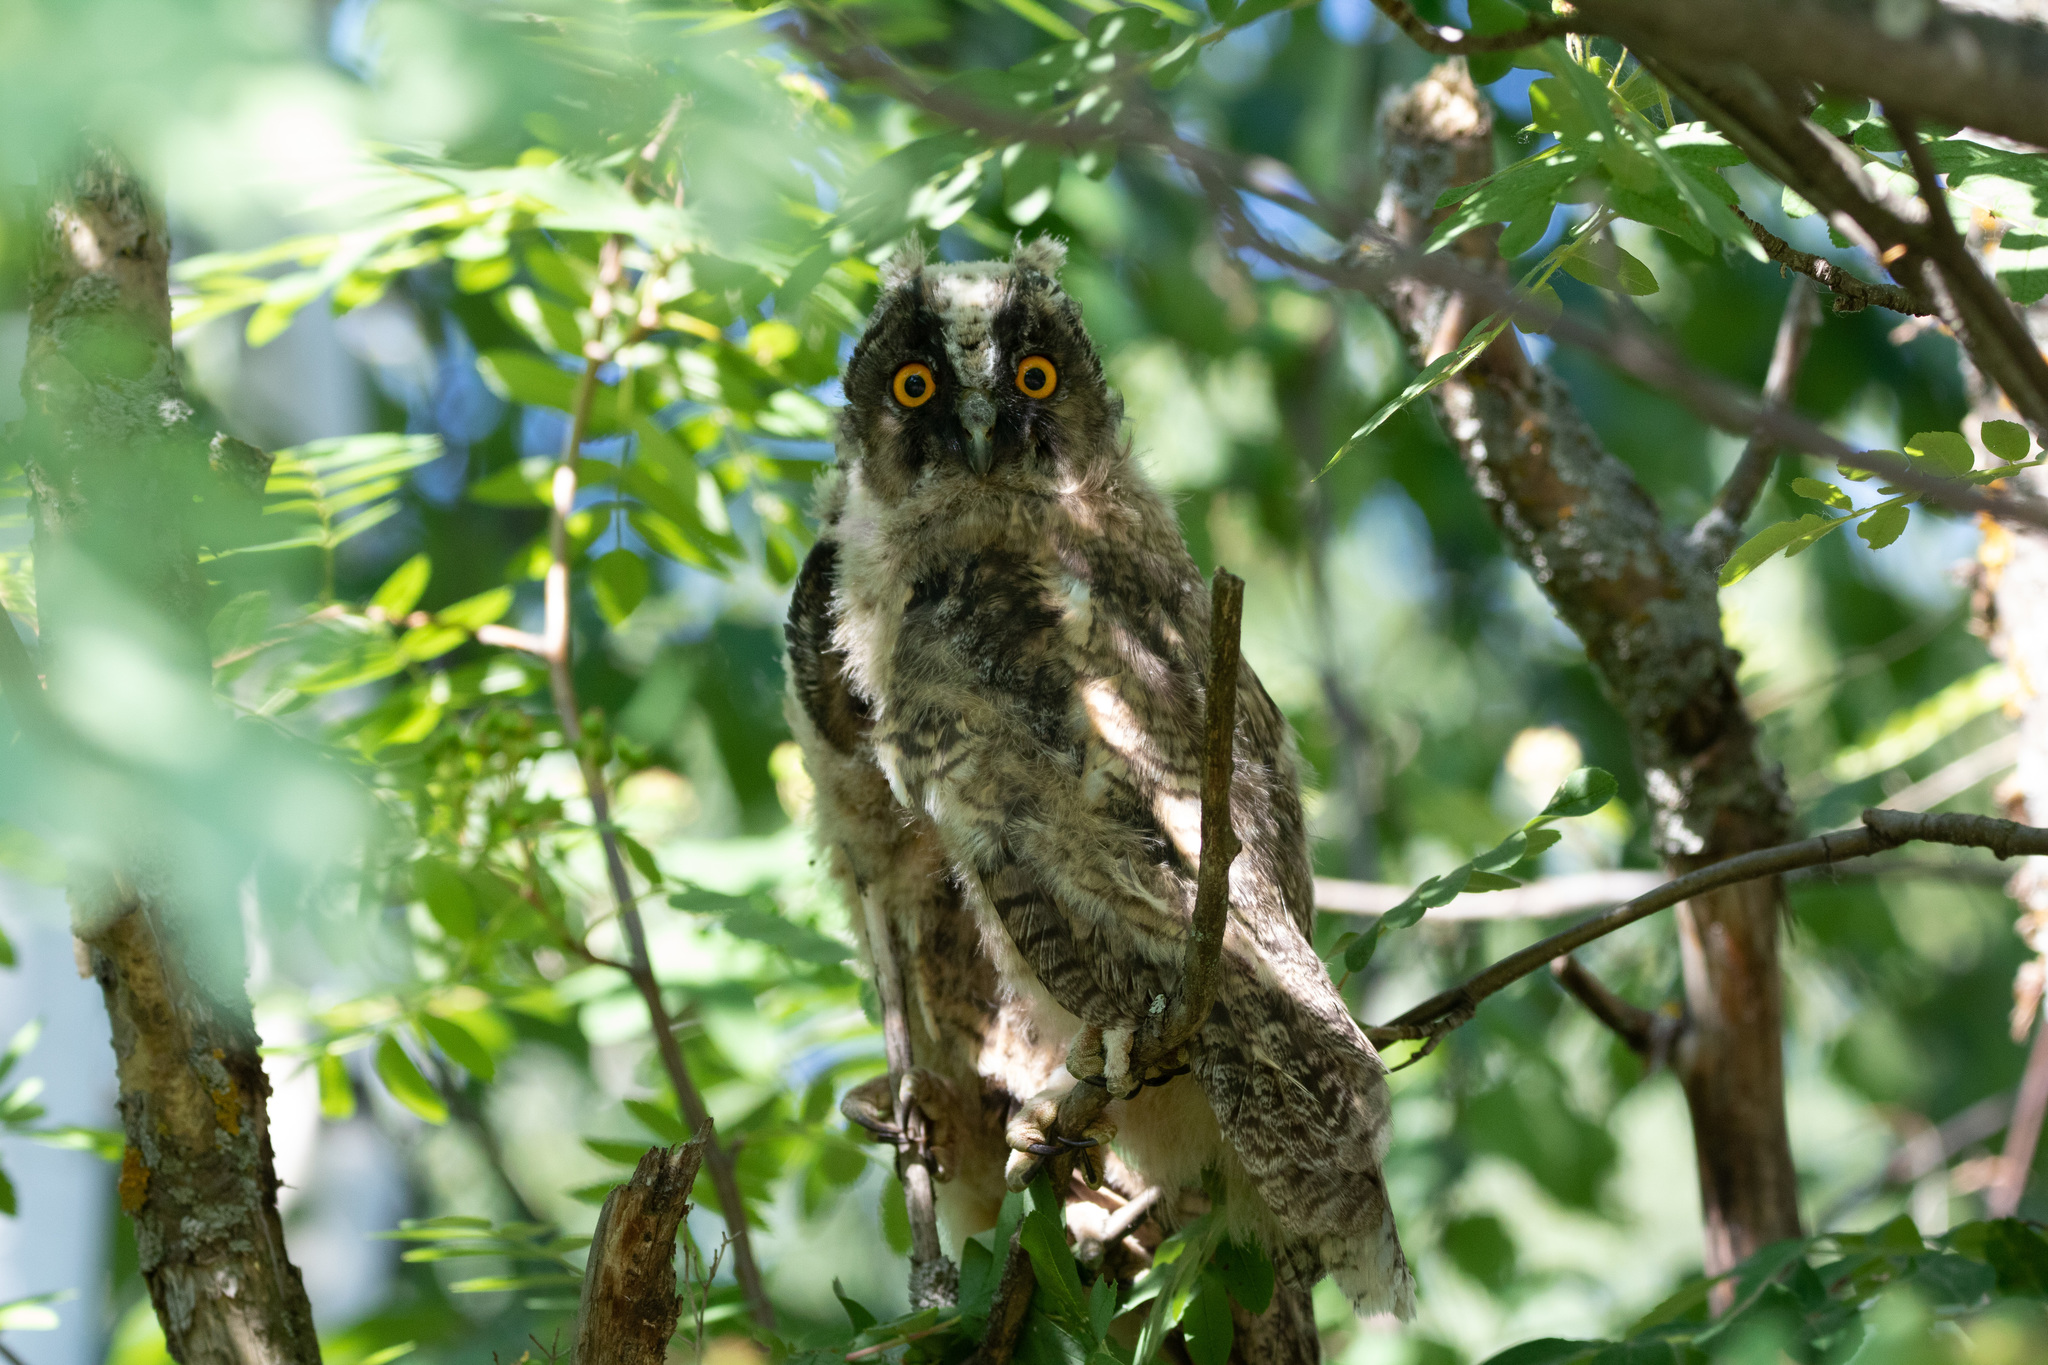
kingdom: Animalia
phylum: Chordata
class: Aves
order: Strigiformes
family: Strigidae
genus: Asio
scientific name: Asio otus
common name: Long-eared owl
